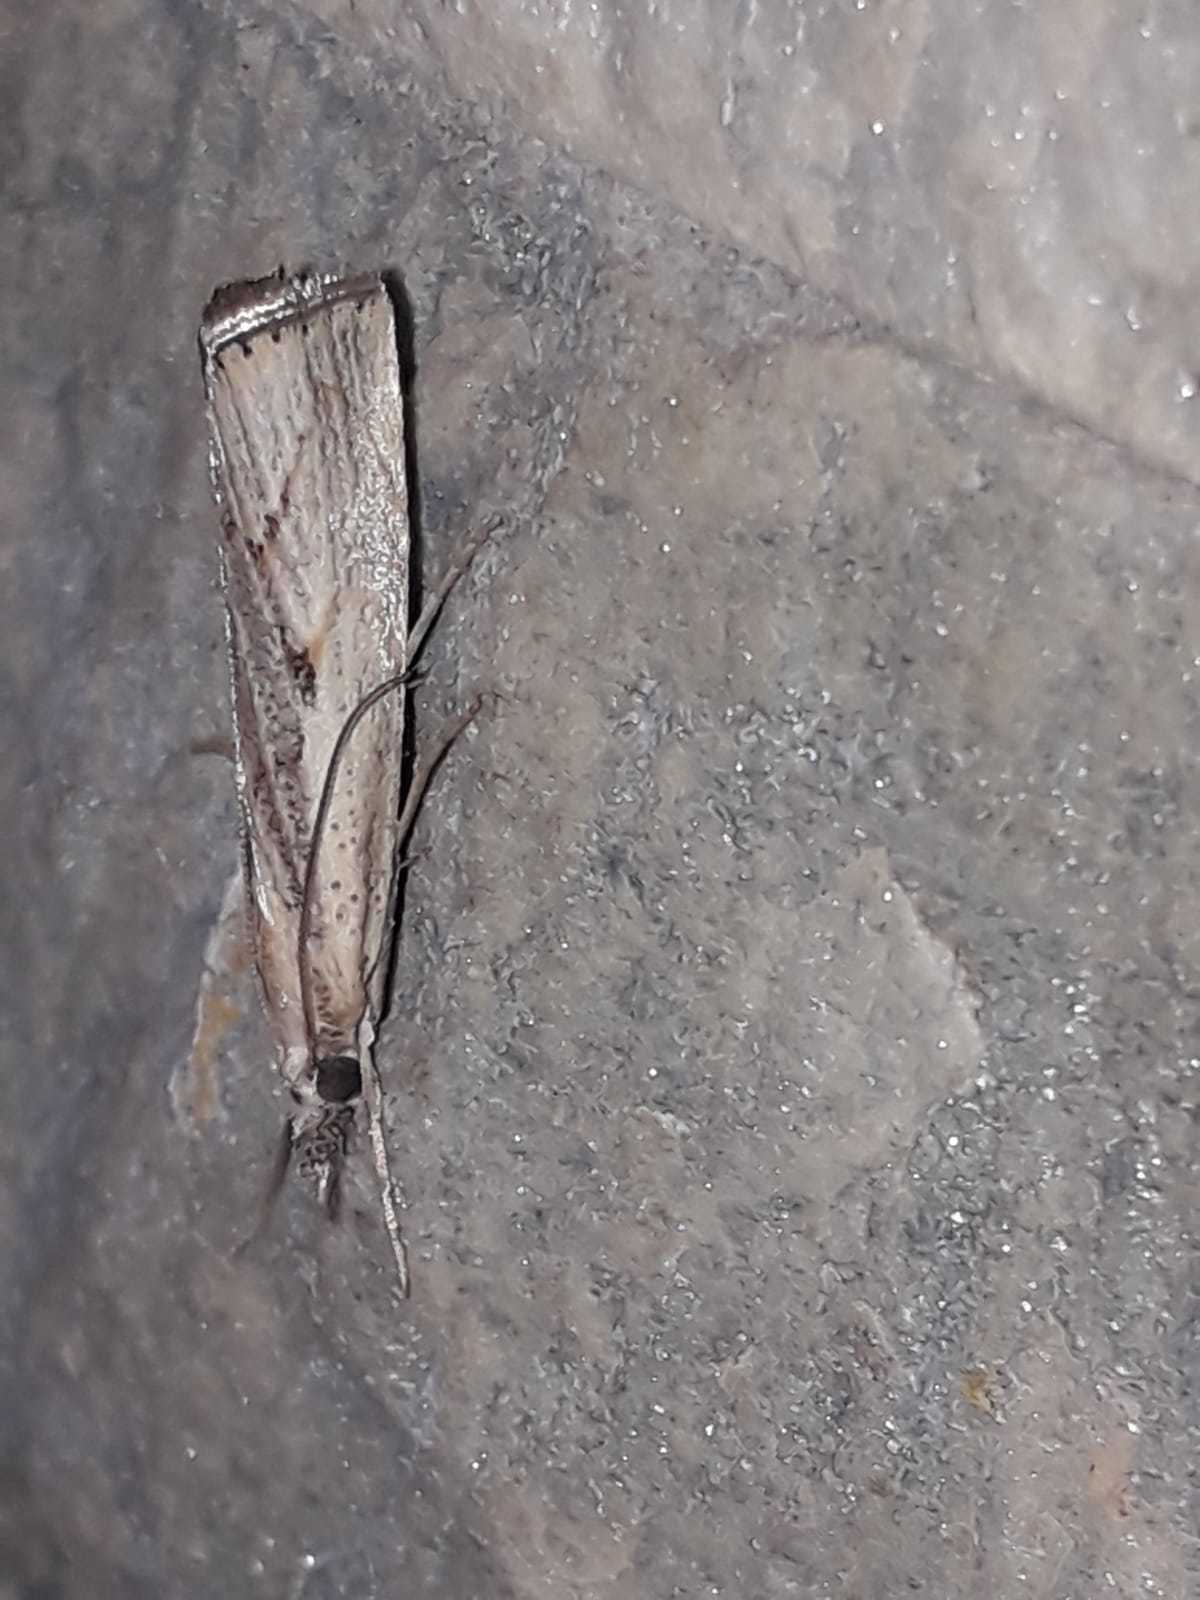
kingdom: Animalia
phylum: Arthropoda
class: Insecta
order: Lepidoptera
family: Crambidae
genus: Agriphila
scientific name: Agriphila geniculea
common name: Elbow-stripe grass-veneer
